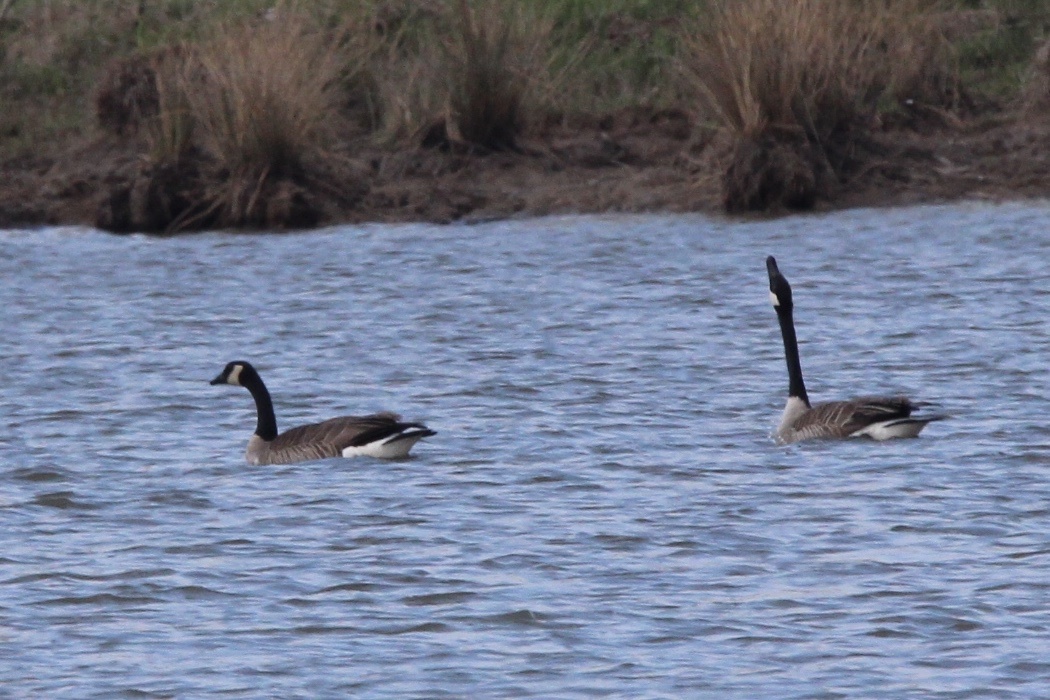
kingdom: Animalia
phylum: Chordata
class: Aves
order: Anseriformes
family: Anatidae
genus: Branta
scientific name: Branta canadensis
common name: Canada goose
